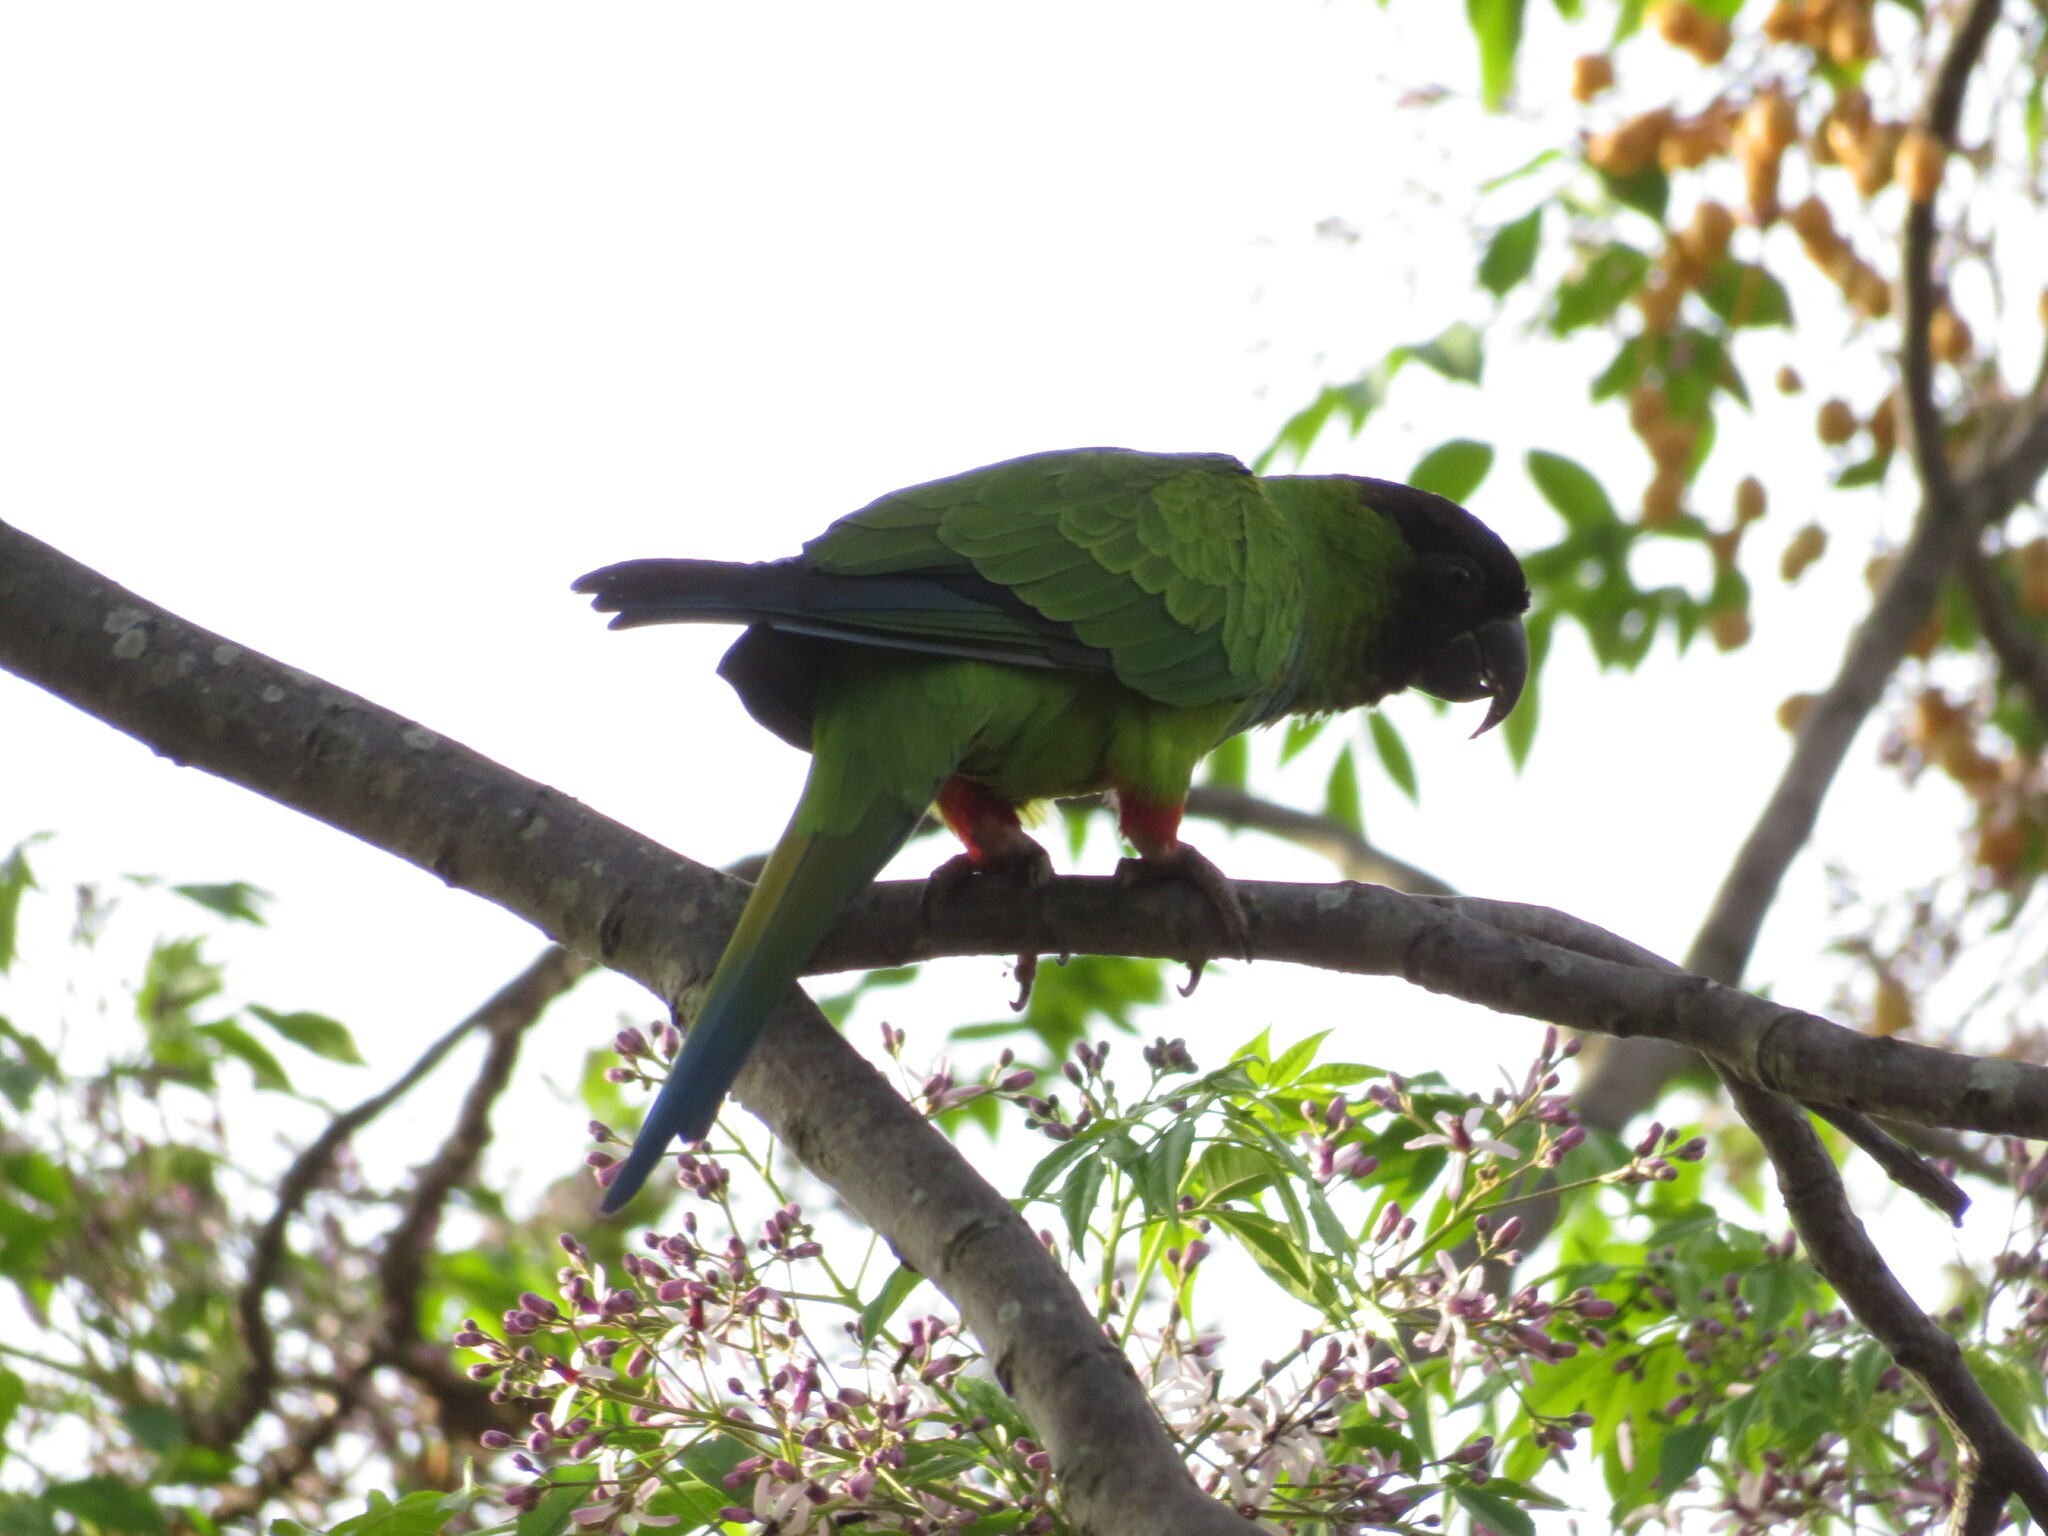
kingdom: Animalia
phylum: Chordata
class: Aves
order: Psittaciformes
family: Psittacidae
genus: Nandayus
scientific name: Nandayus nenday
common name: Nanday parakeet
